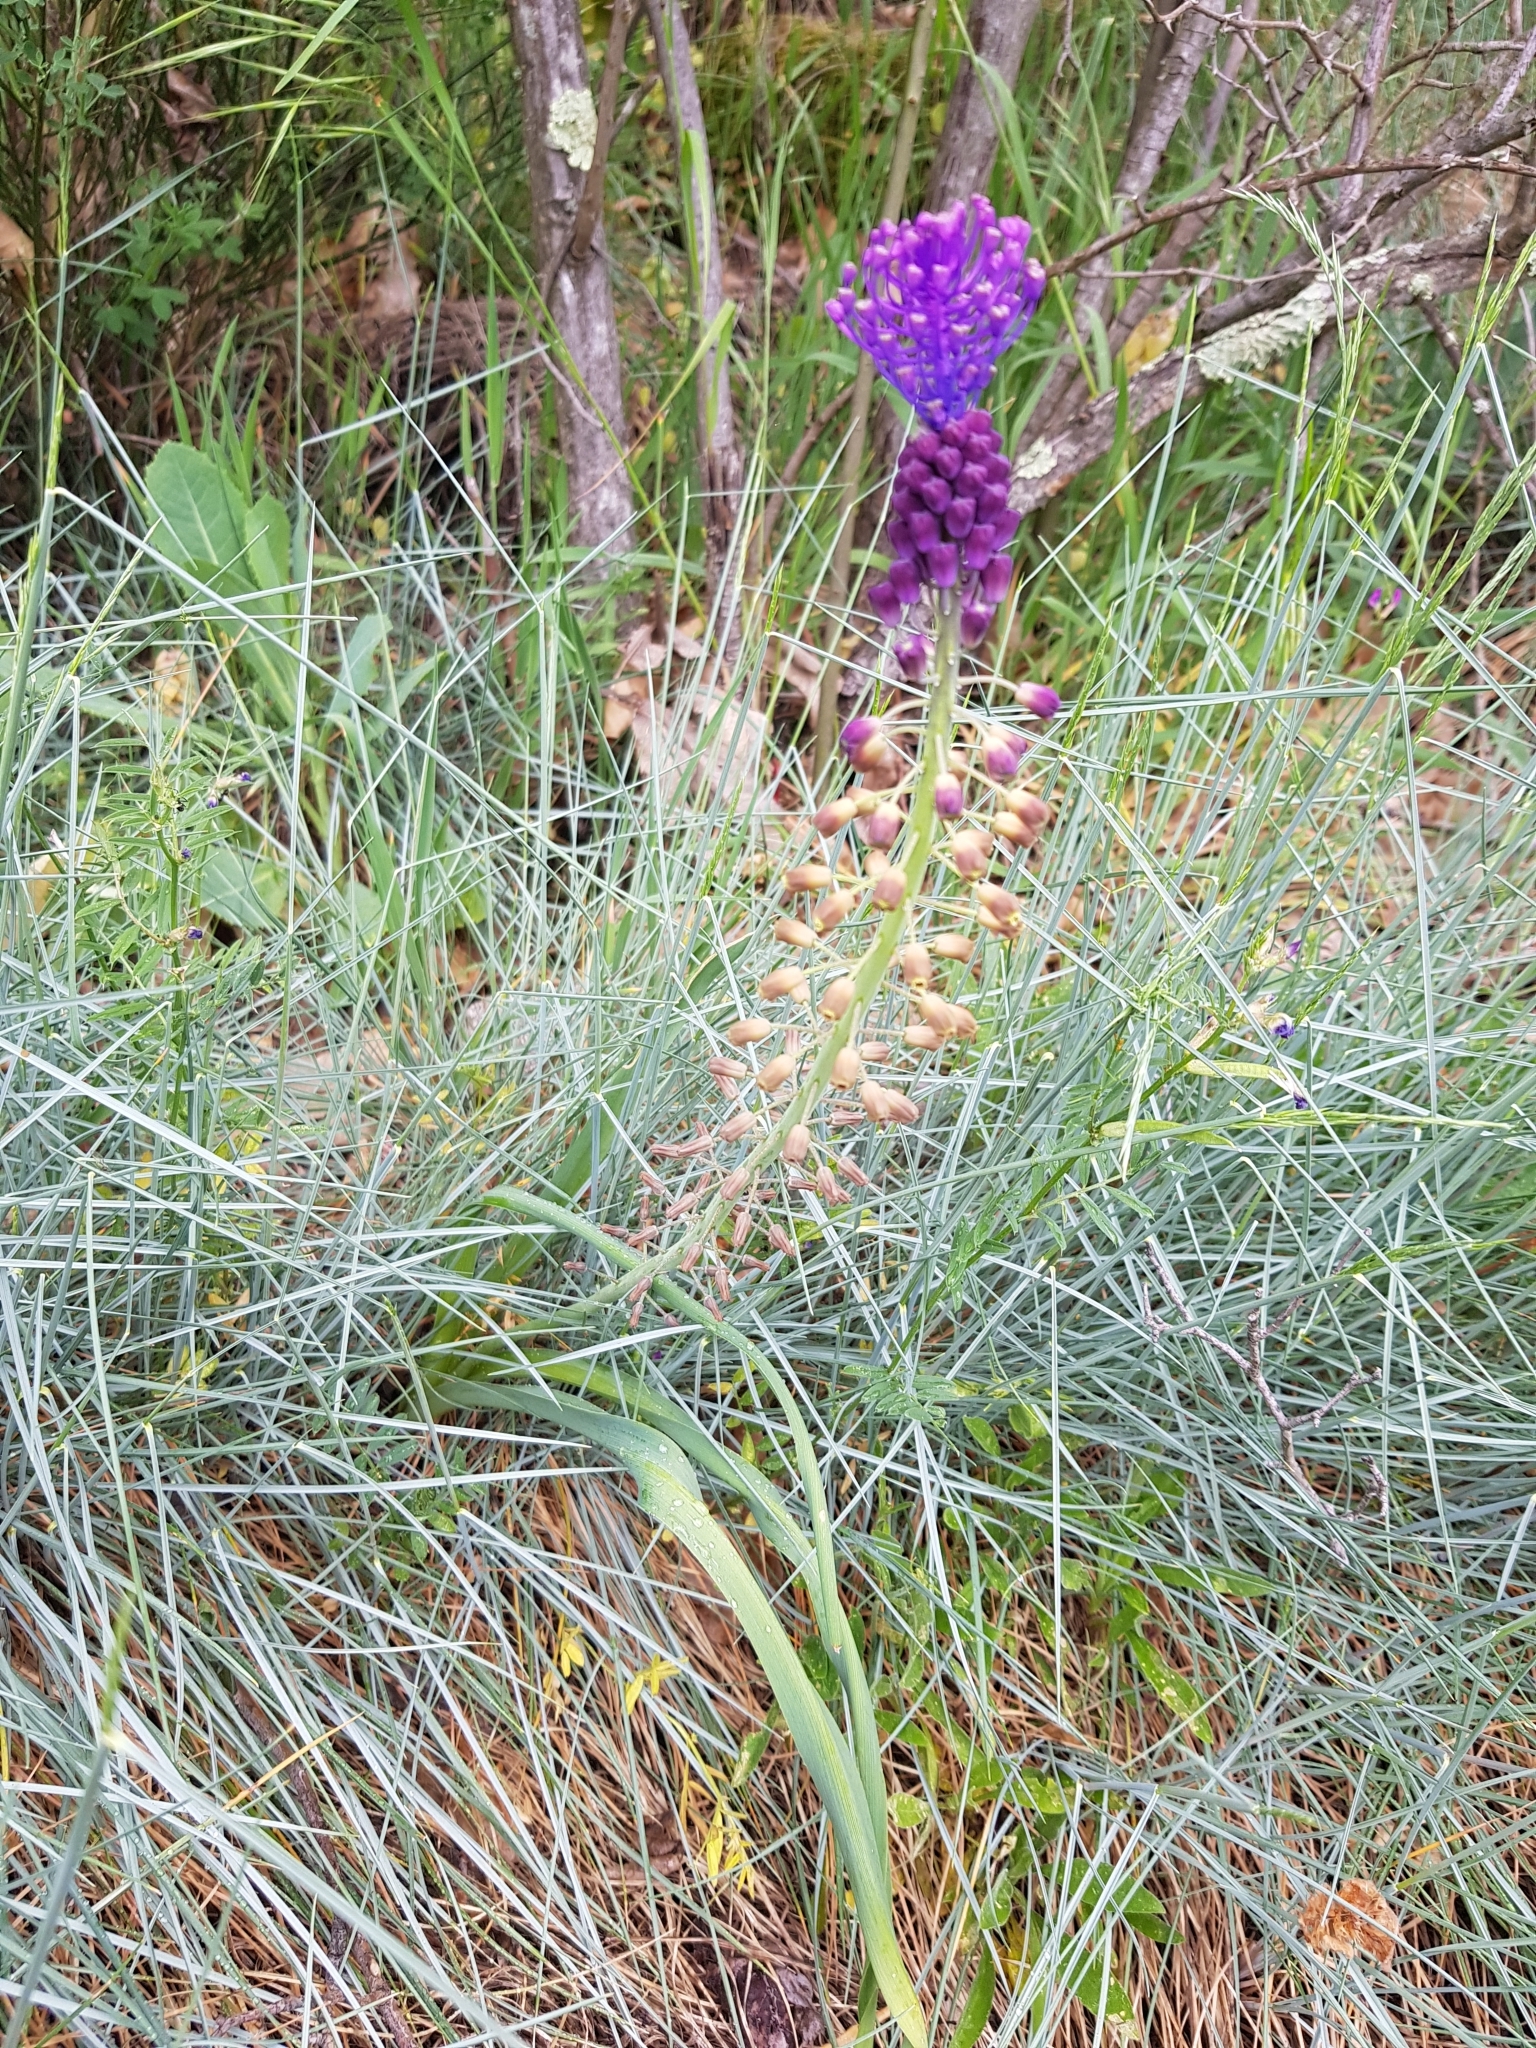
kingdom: Plantae
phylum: Tracheophyta
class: Liliopsida
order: Asparagales
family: Asparagaceae
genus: Muscari
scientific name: Muscari comosum
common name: Tassel hyacinth
